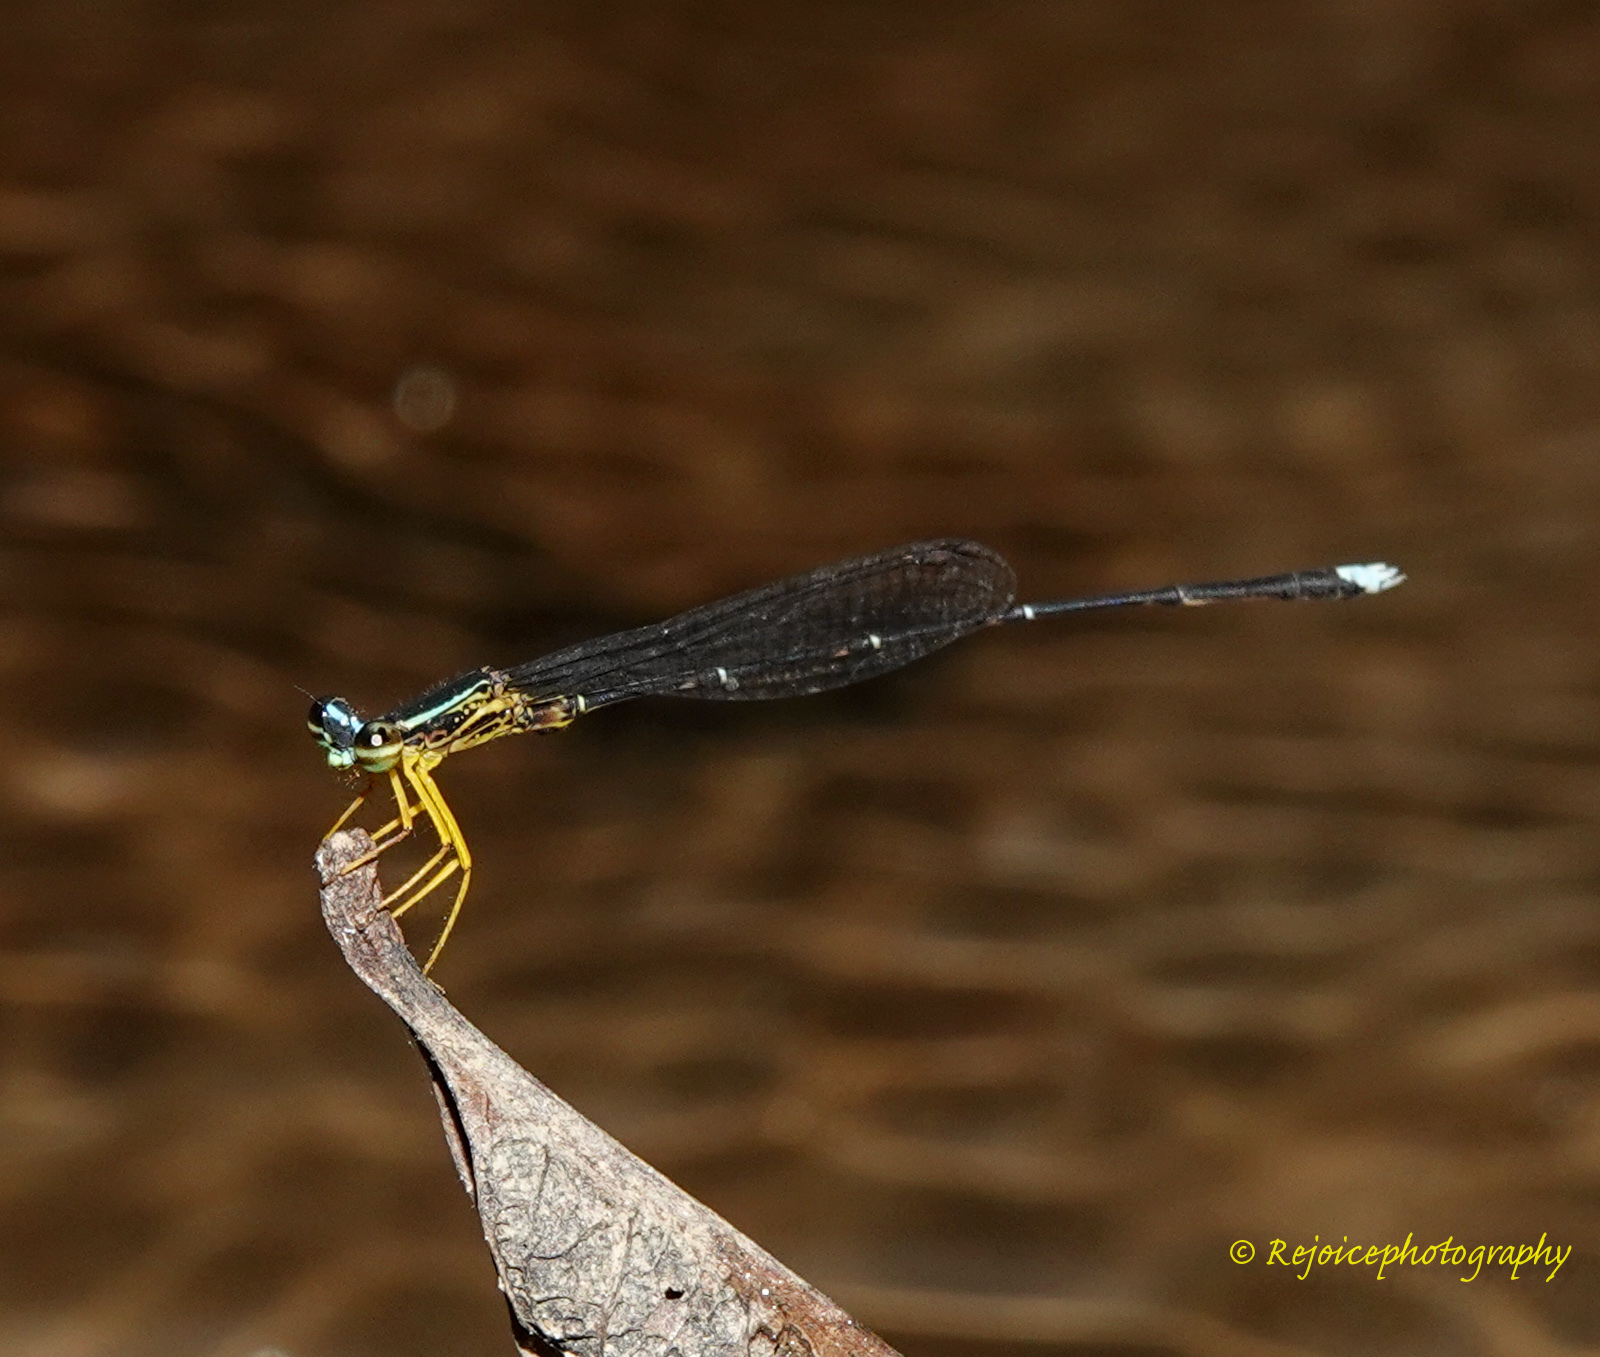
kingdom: Animalia
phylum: Arthropoda
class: Insecta
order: Odonata
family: Platycnemididae
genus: Copera
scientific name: Copera vittata
